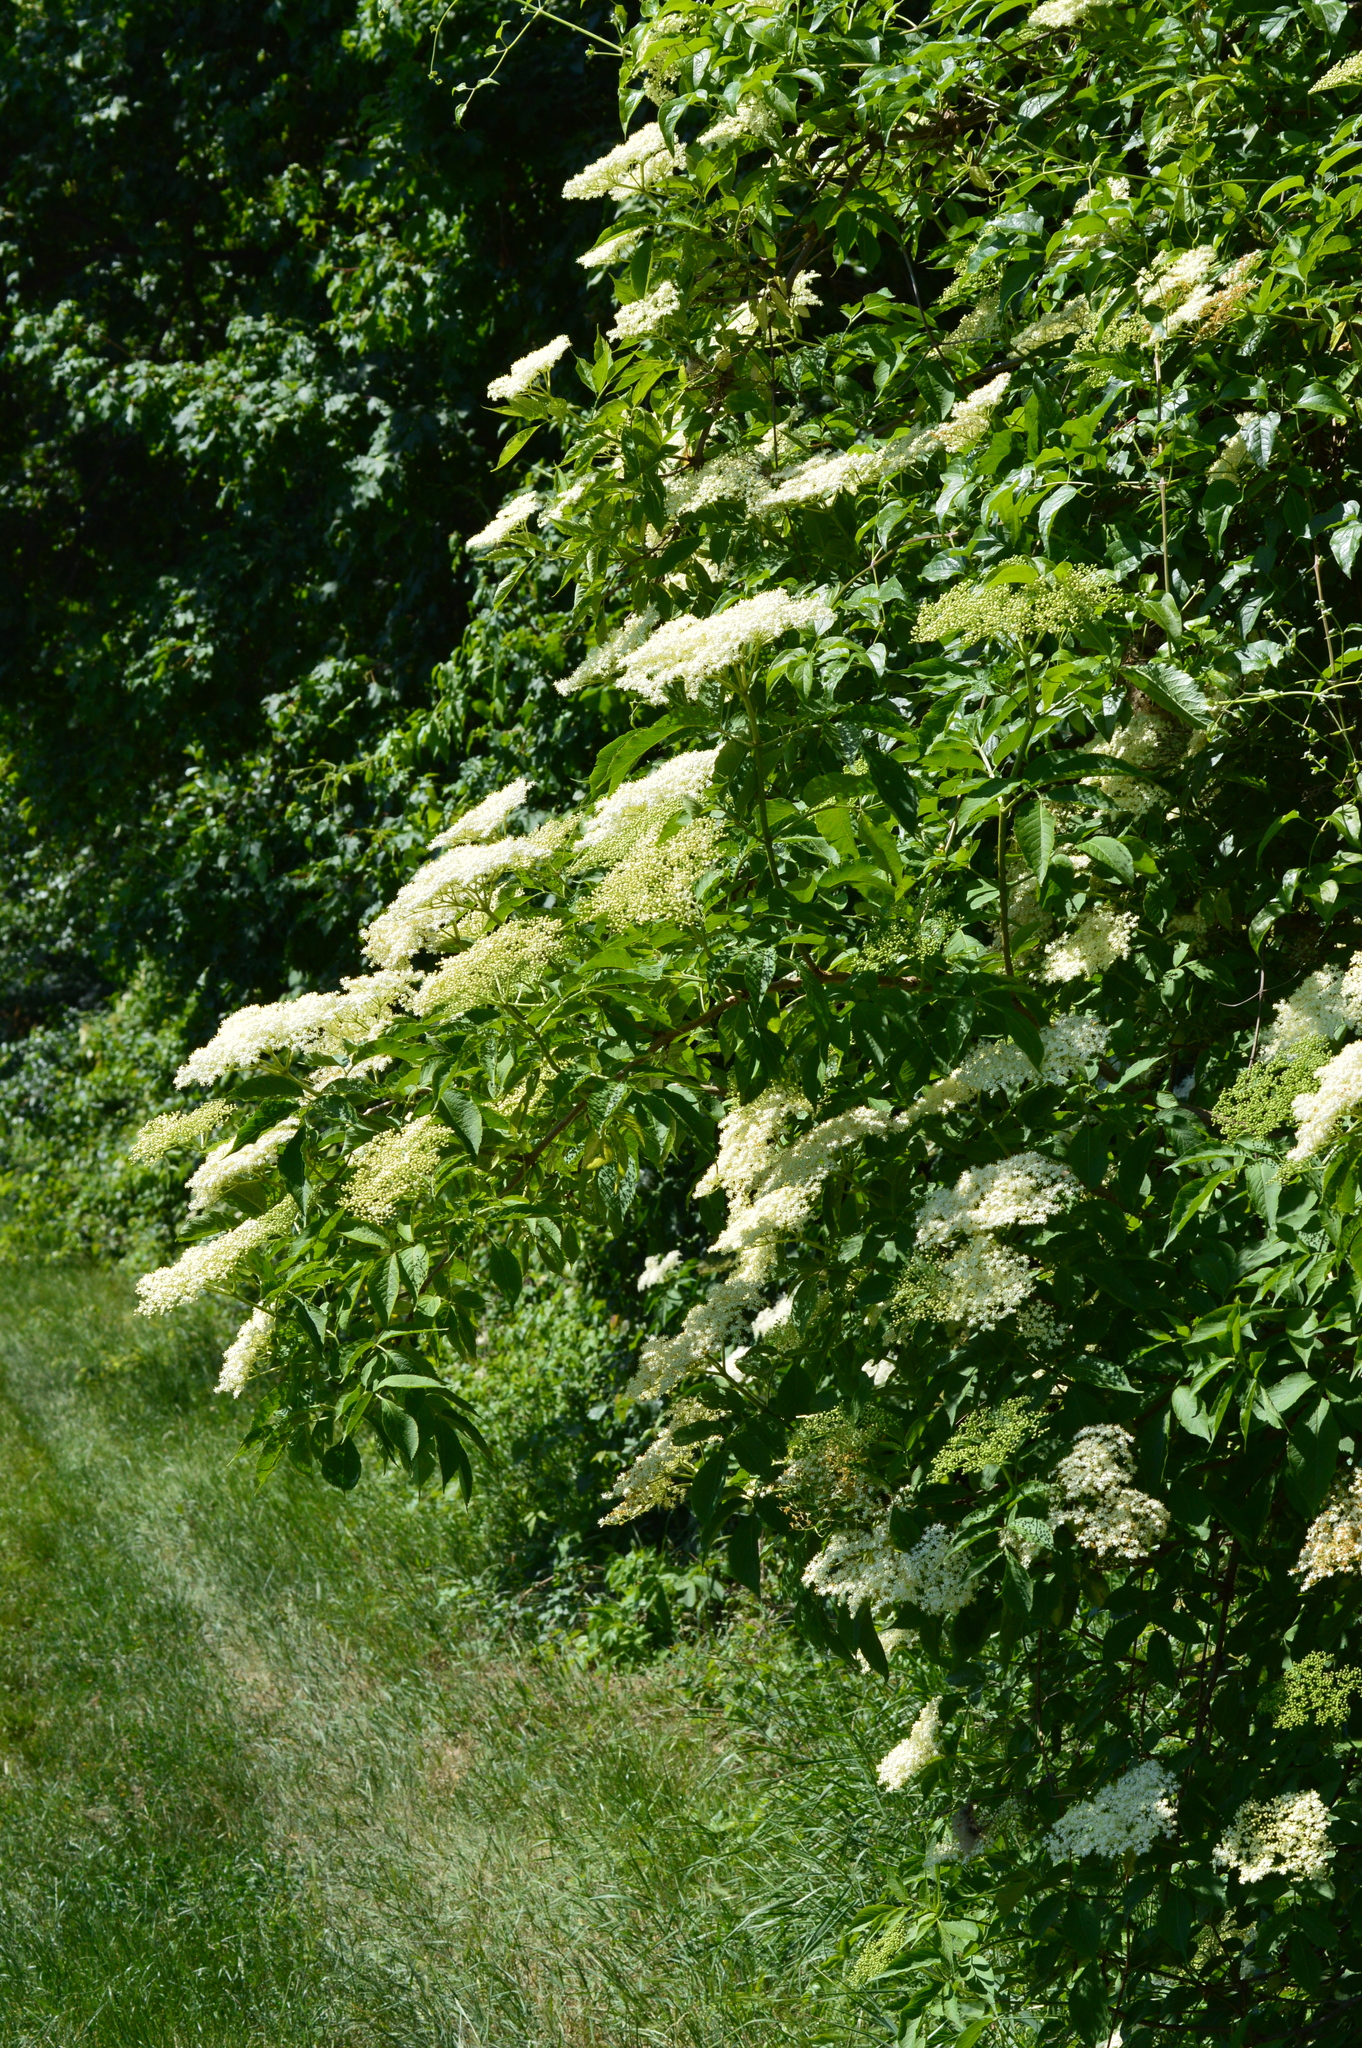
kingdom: Plantae
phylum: Tracheophyta
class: Magnoliopsida
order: Dipsacales
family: Viburnaceae
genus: Sambucus
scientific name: Sambucus nigra
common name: Elder
